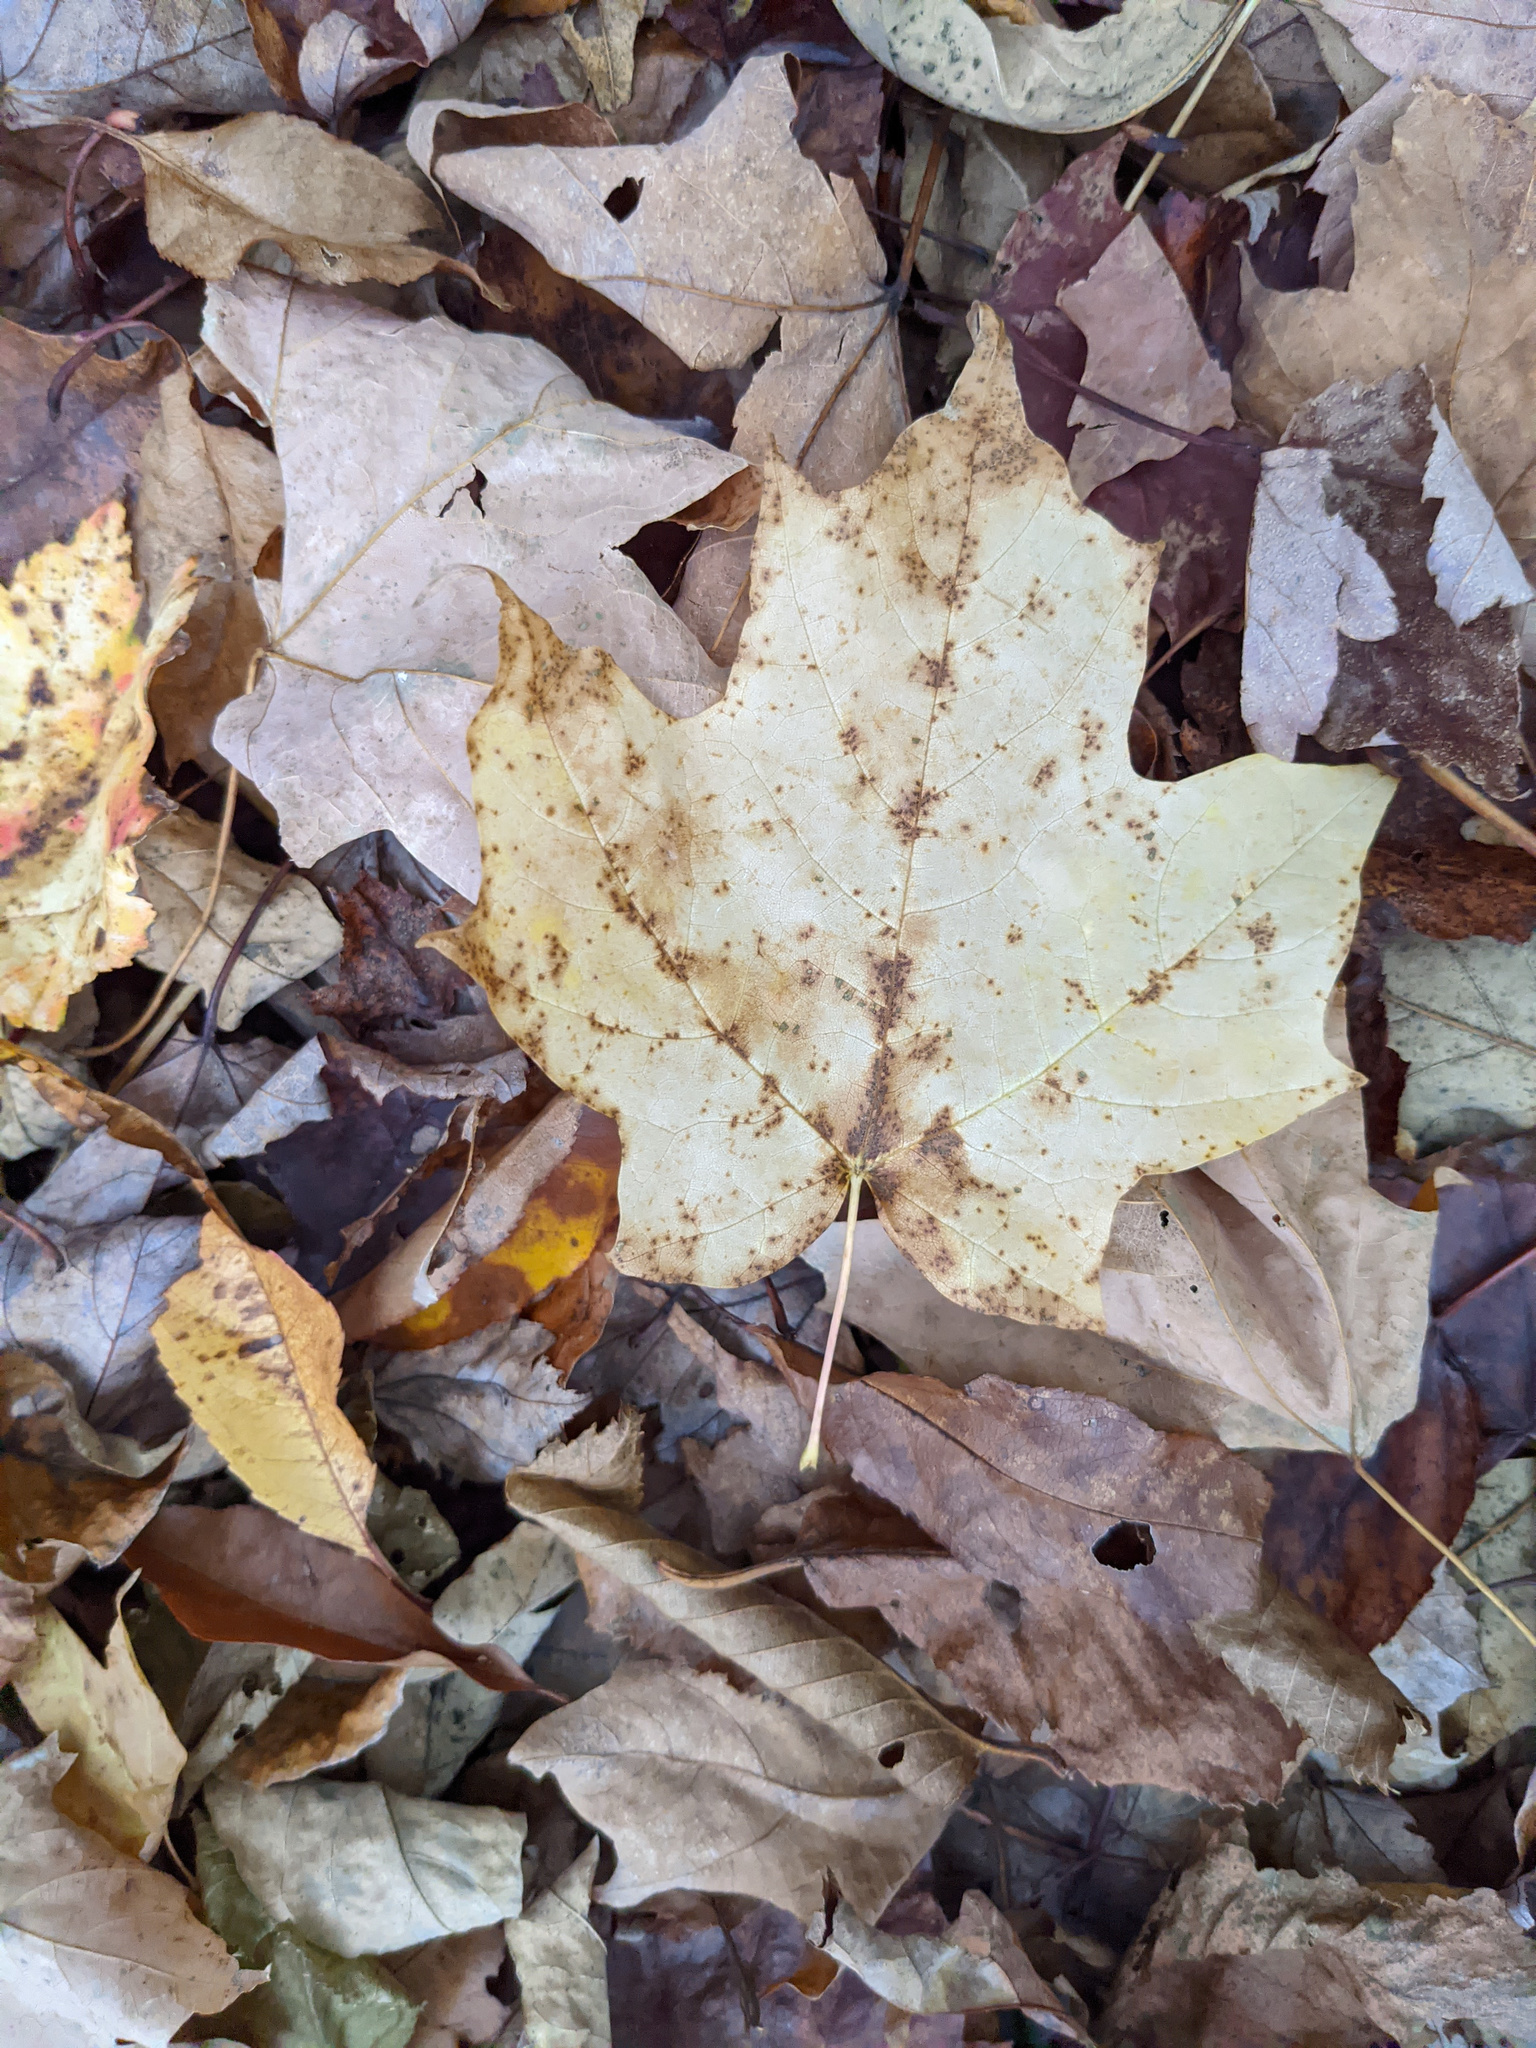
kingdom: Plantae
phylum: Tracheophyta
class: Magnoliopsida
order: Sapindales
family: Sapindaceae
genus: Acer
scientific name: Acer saccharum
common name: Sugar maple
